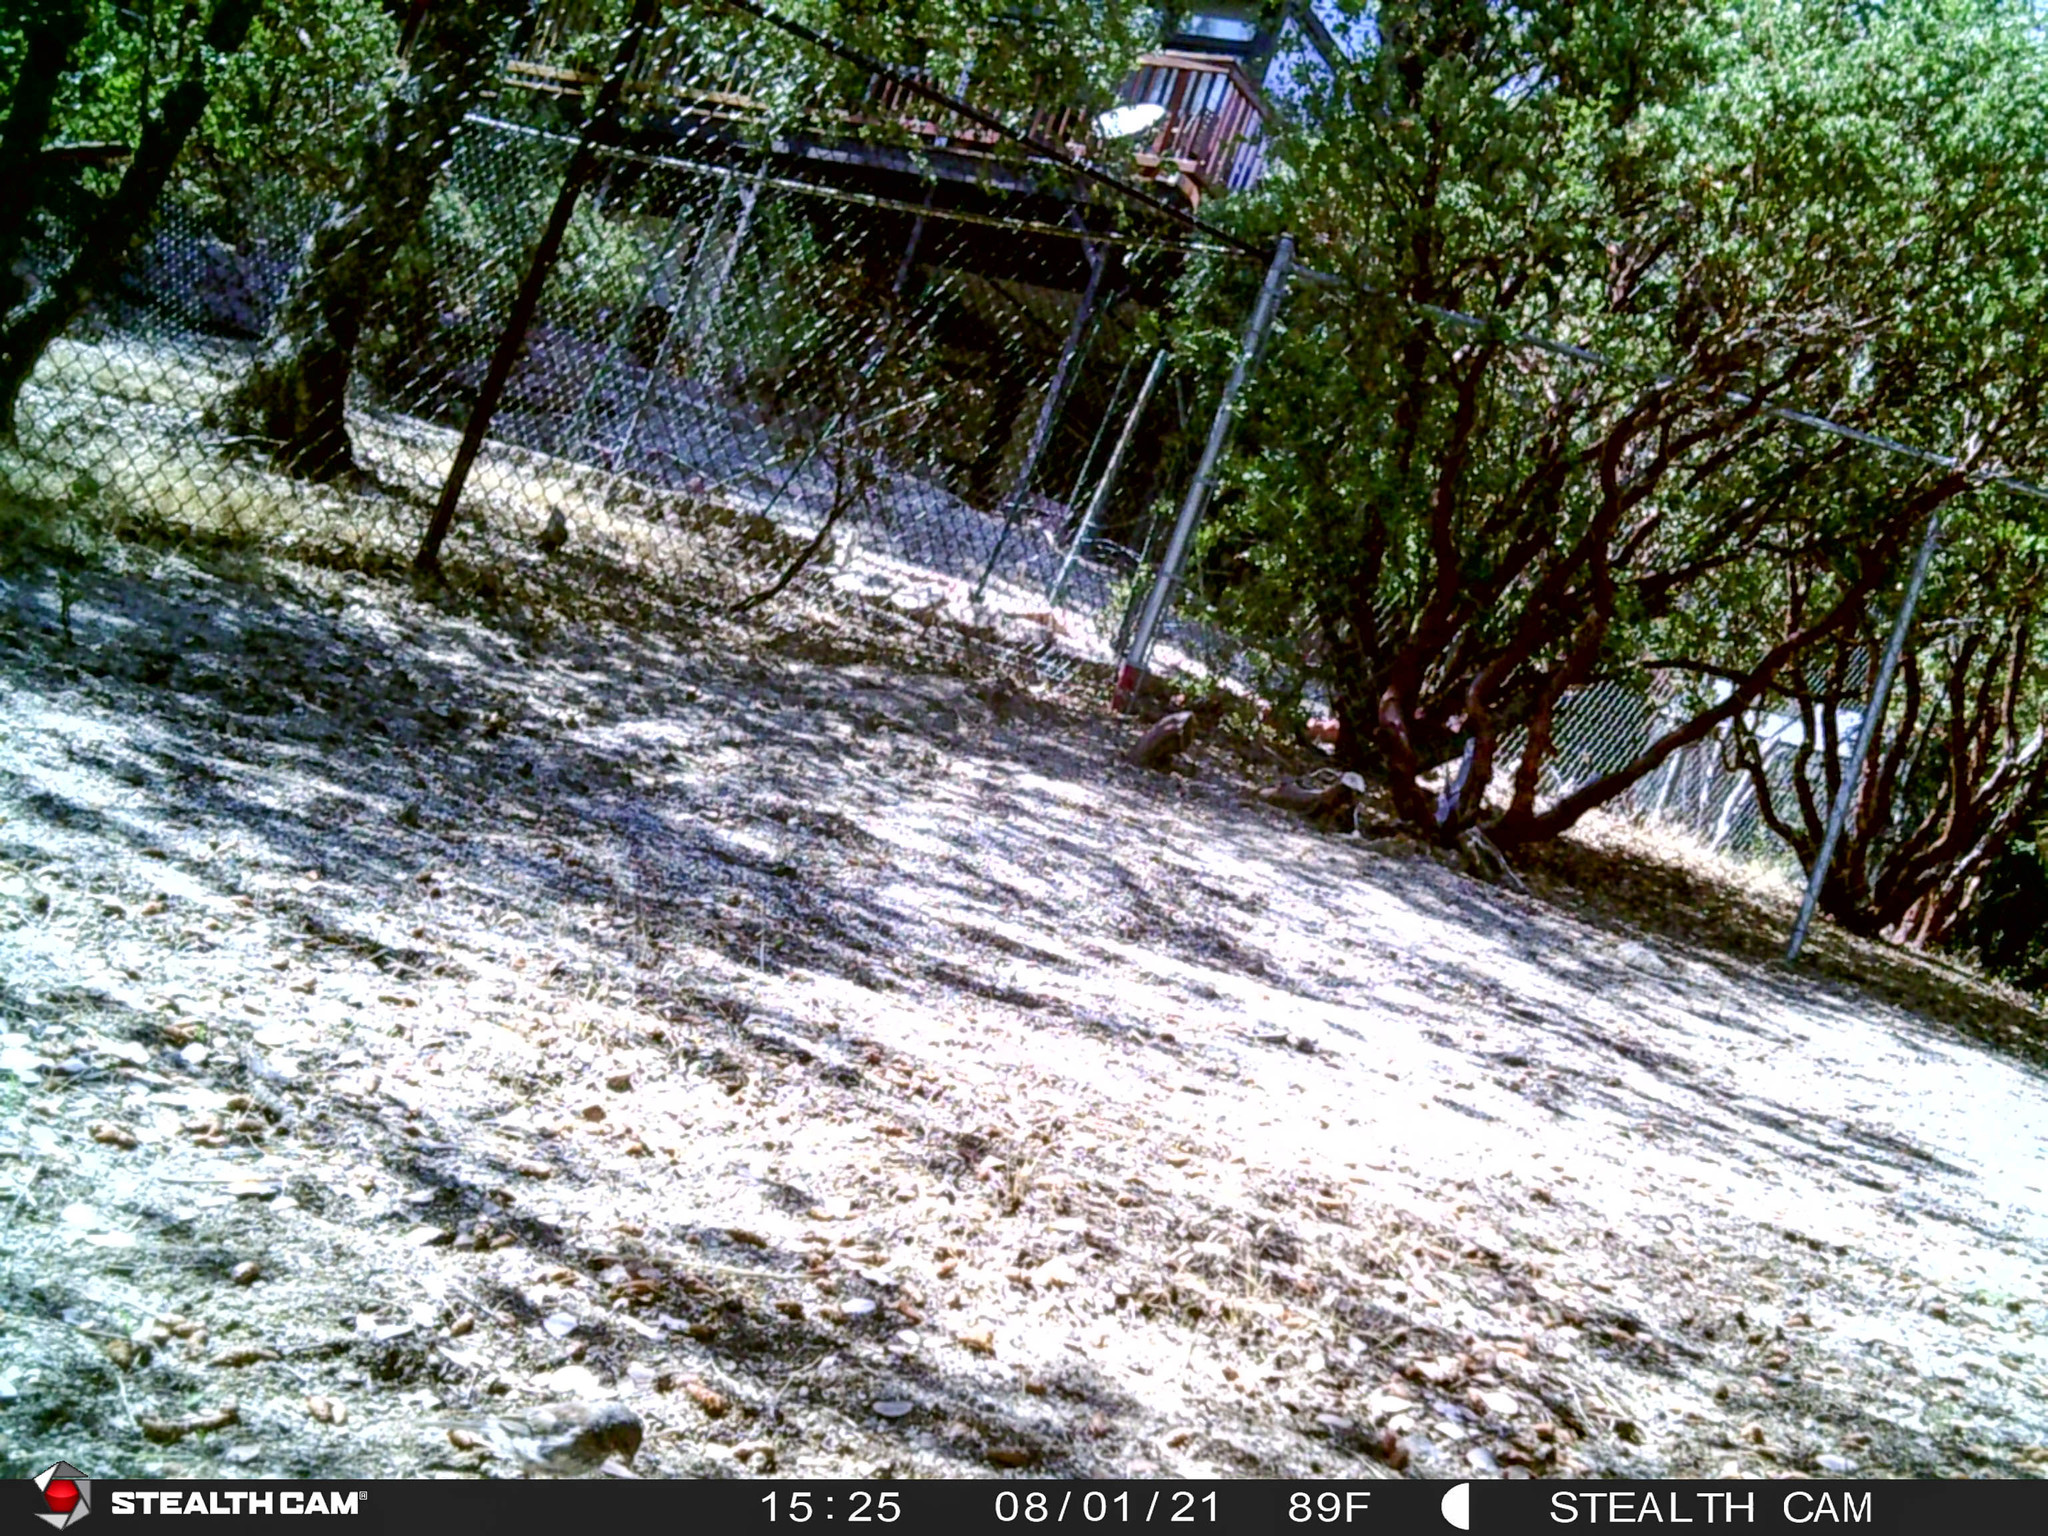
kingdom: Animalia
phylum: Chordata
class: Aves
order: Passeriformes
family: Passerellidae
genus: Junco
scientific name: Junco hyemalis
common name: Dark-eyed junco
